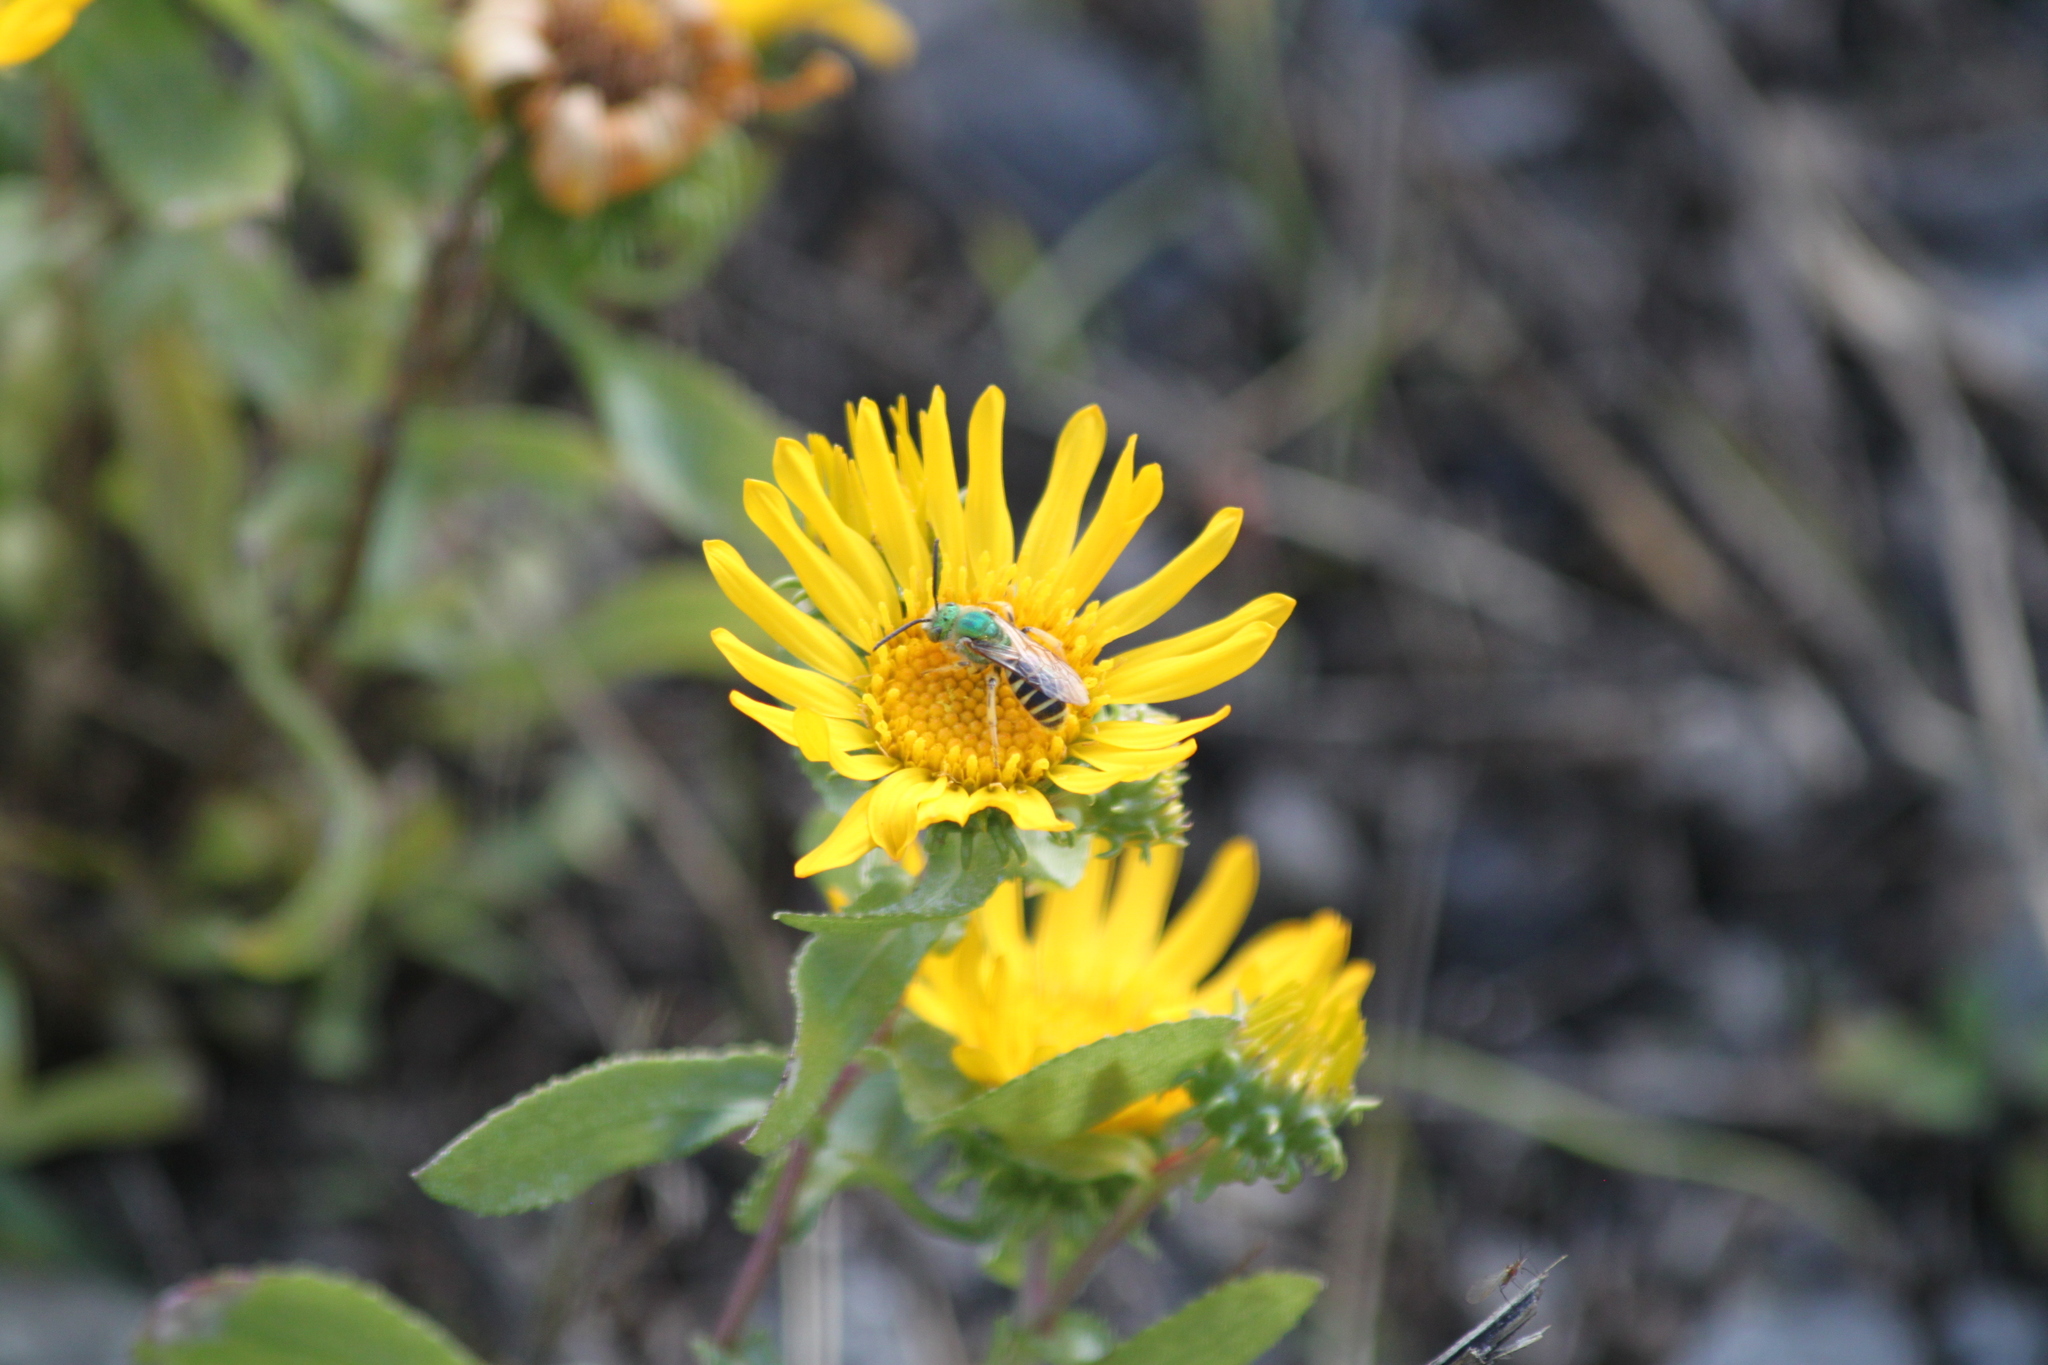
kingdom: Plantae
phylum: Tracheophyta
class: Magnoliopsida
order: Asterales
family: Asteraceae
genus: Grindelia
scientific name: Grindelia squarrosa
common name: Curly-cup gumweed
